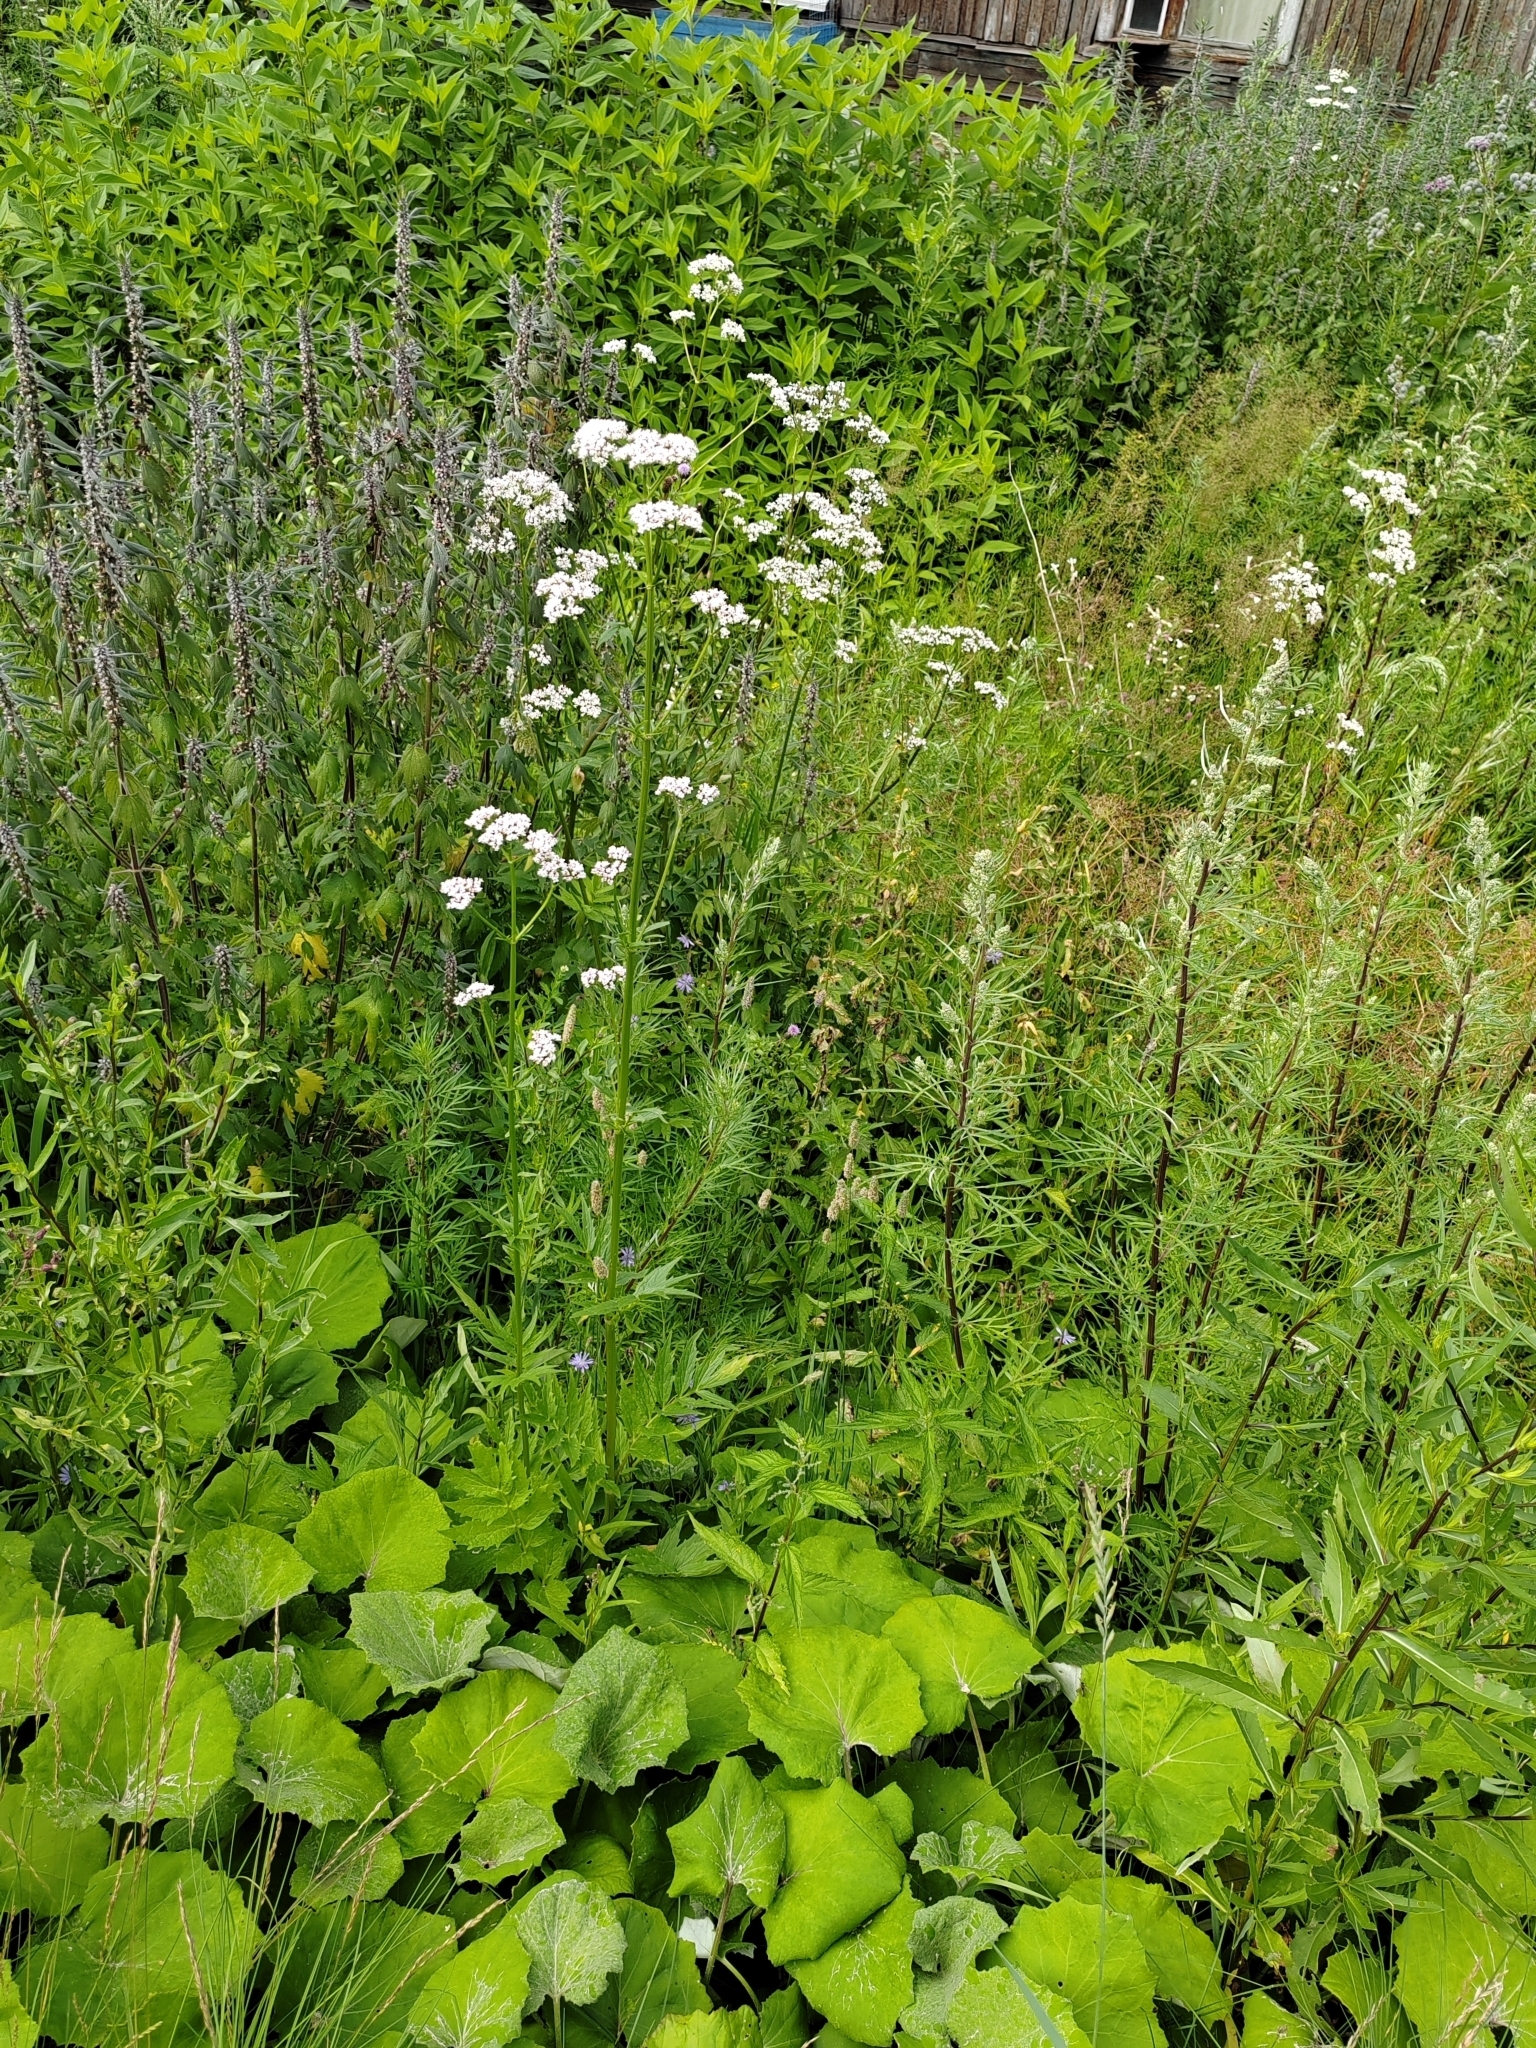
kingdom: Plantae
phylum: Tracheophyta
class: Magnoliopsida
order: Asterales
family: Asteraceae
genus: Tussilago
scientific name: Tussilago farfara
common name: Coltsfoot
